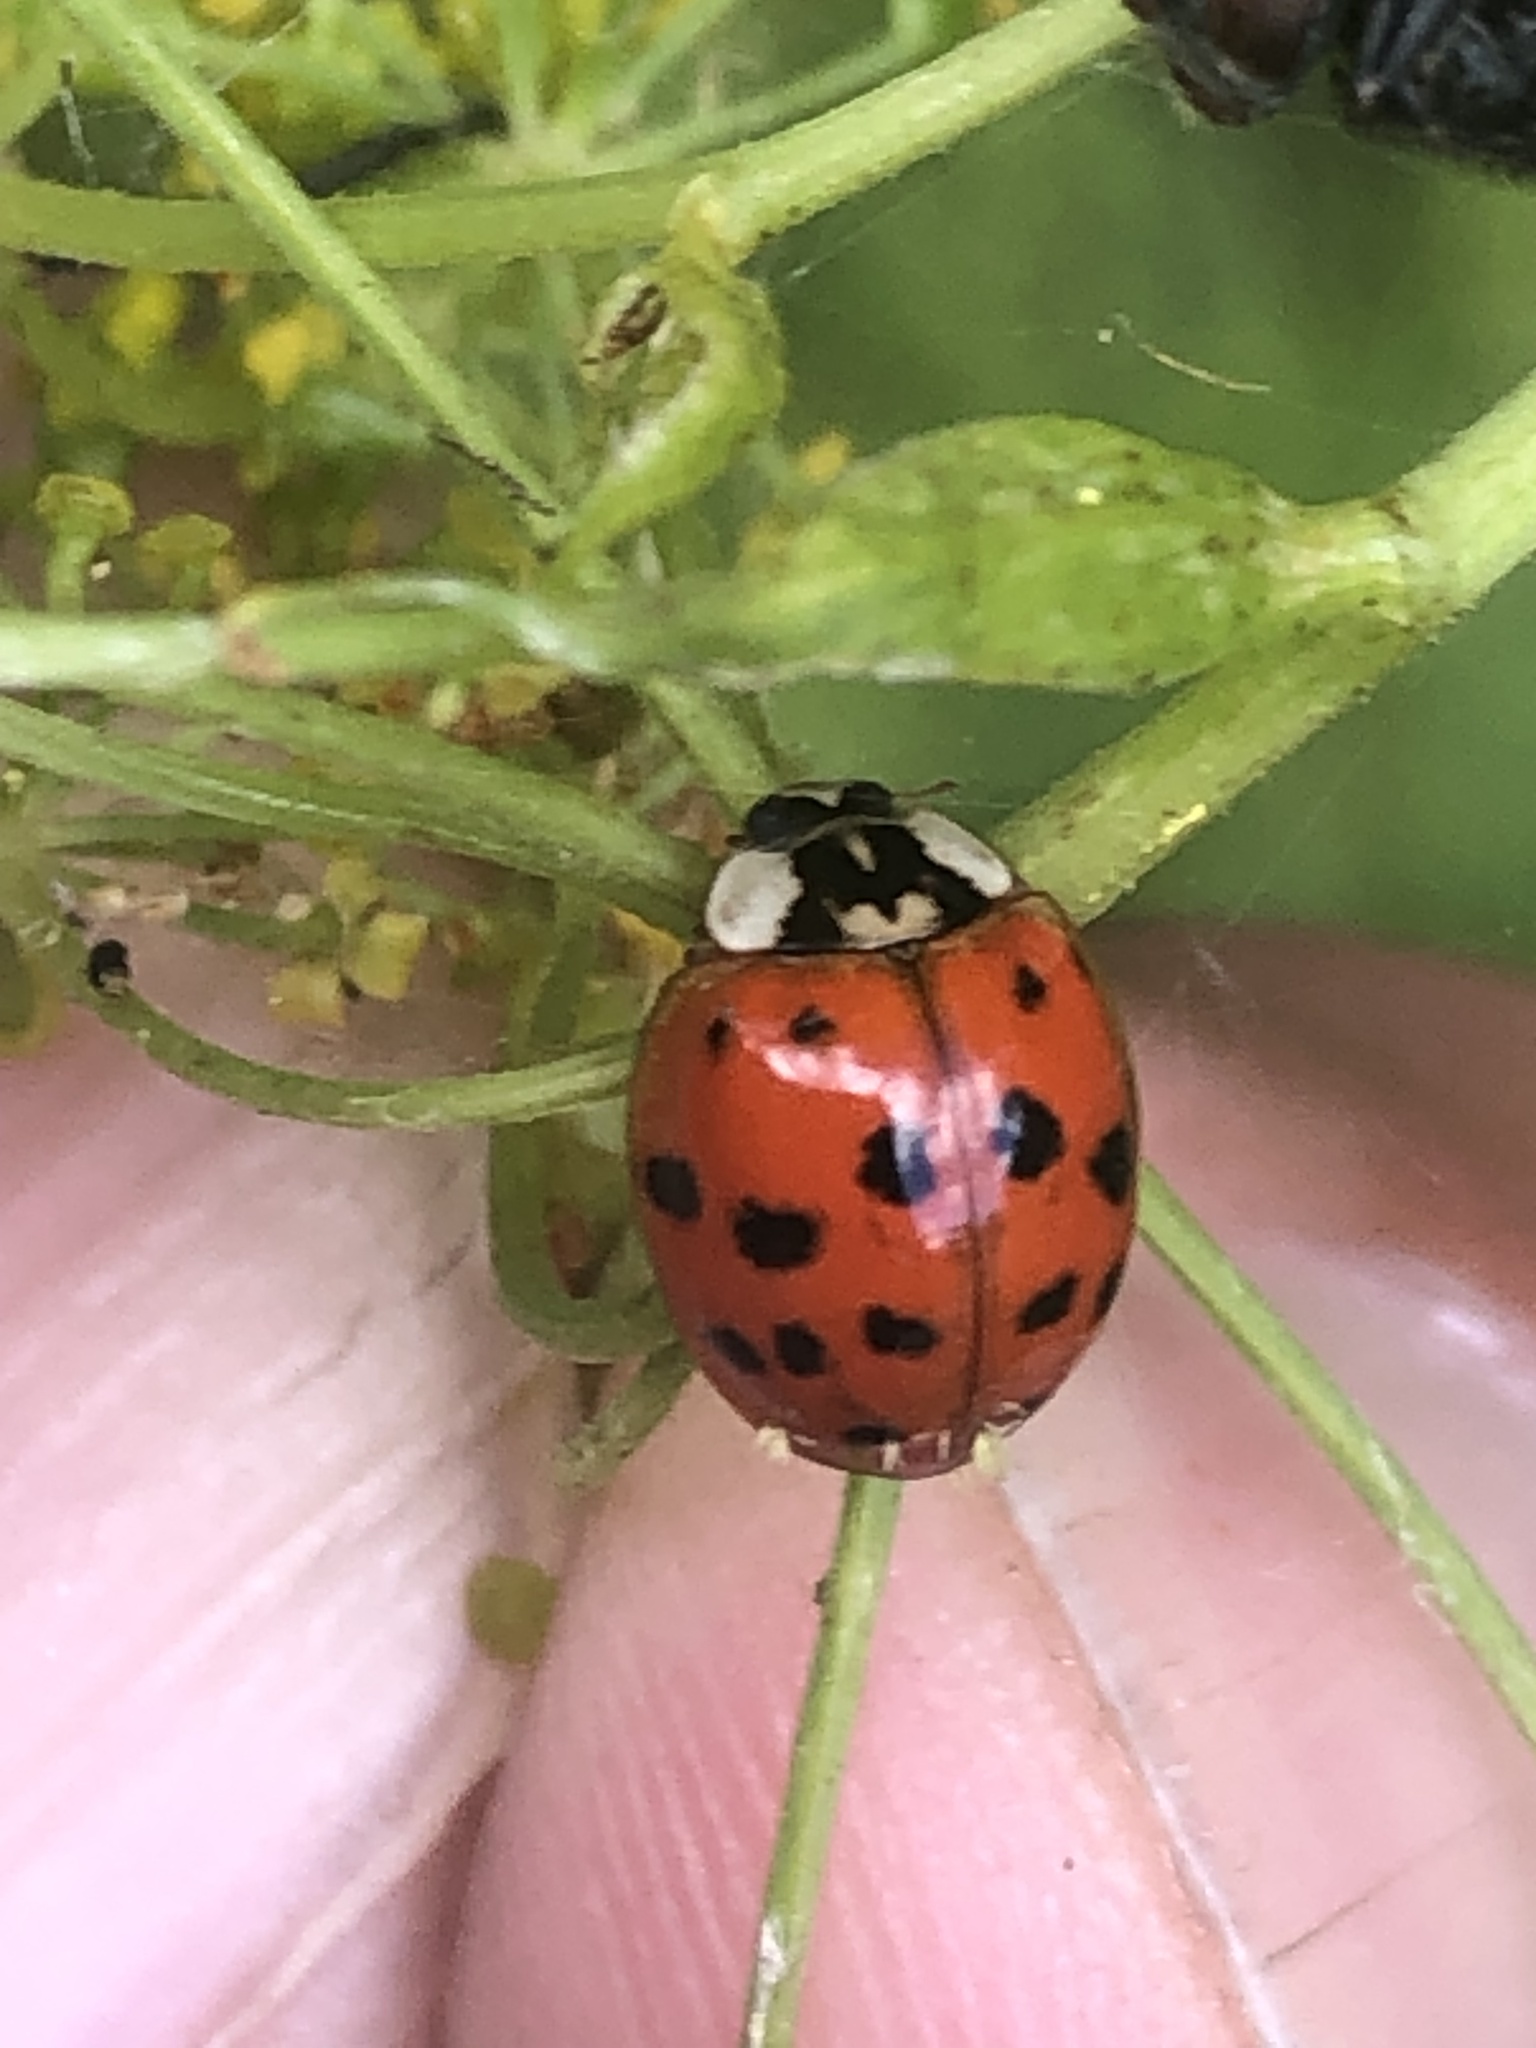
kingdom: Animalia
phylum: Arthropoda
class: Insecta
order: Coleoptera
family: Coccinellidae
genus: Harmonia
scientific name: Harmonia axyridis
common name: Harlequin ladybird
